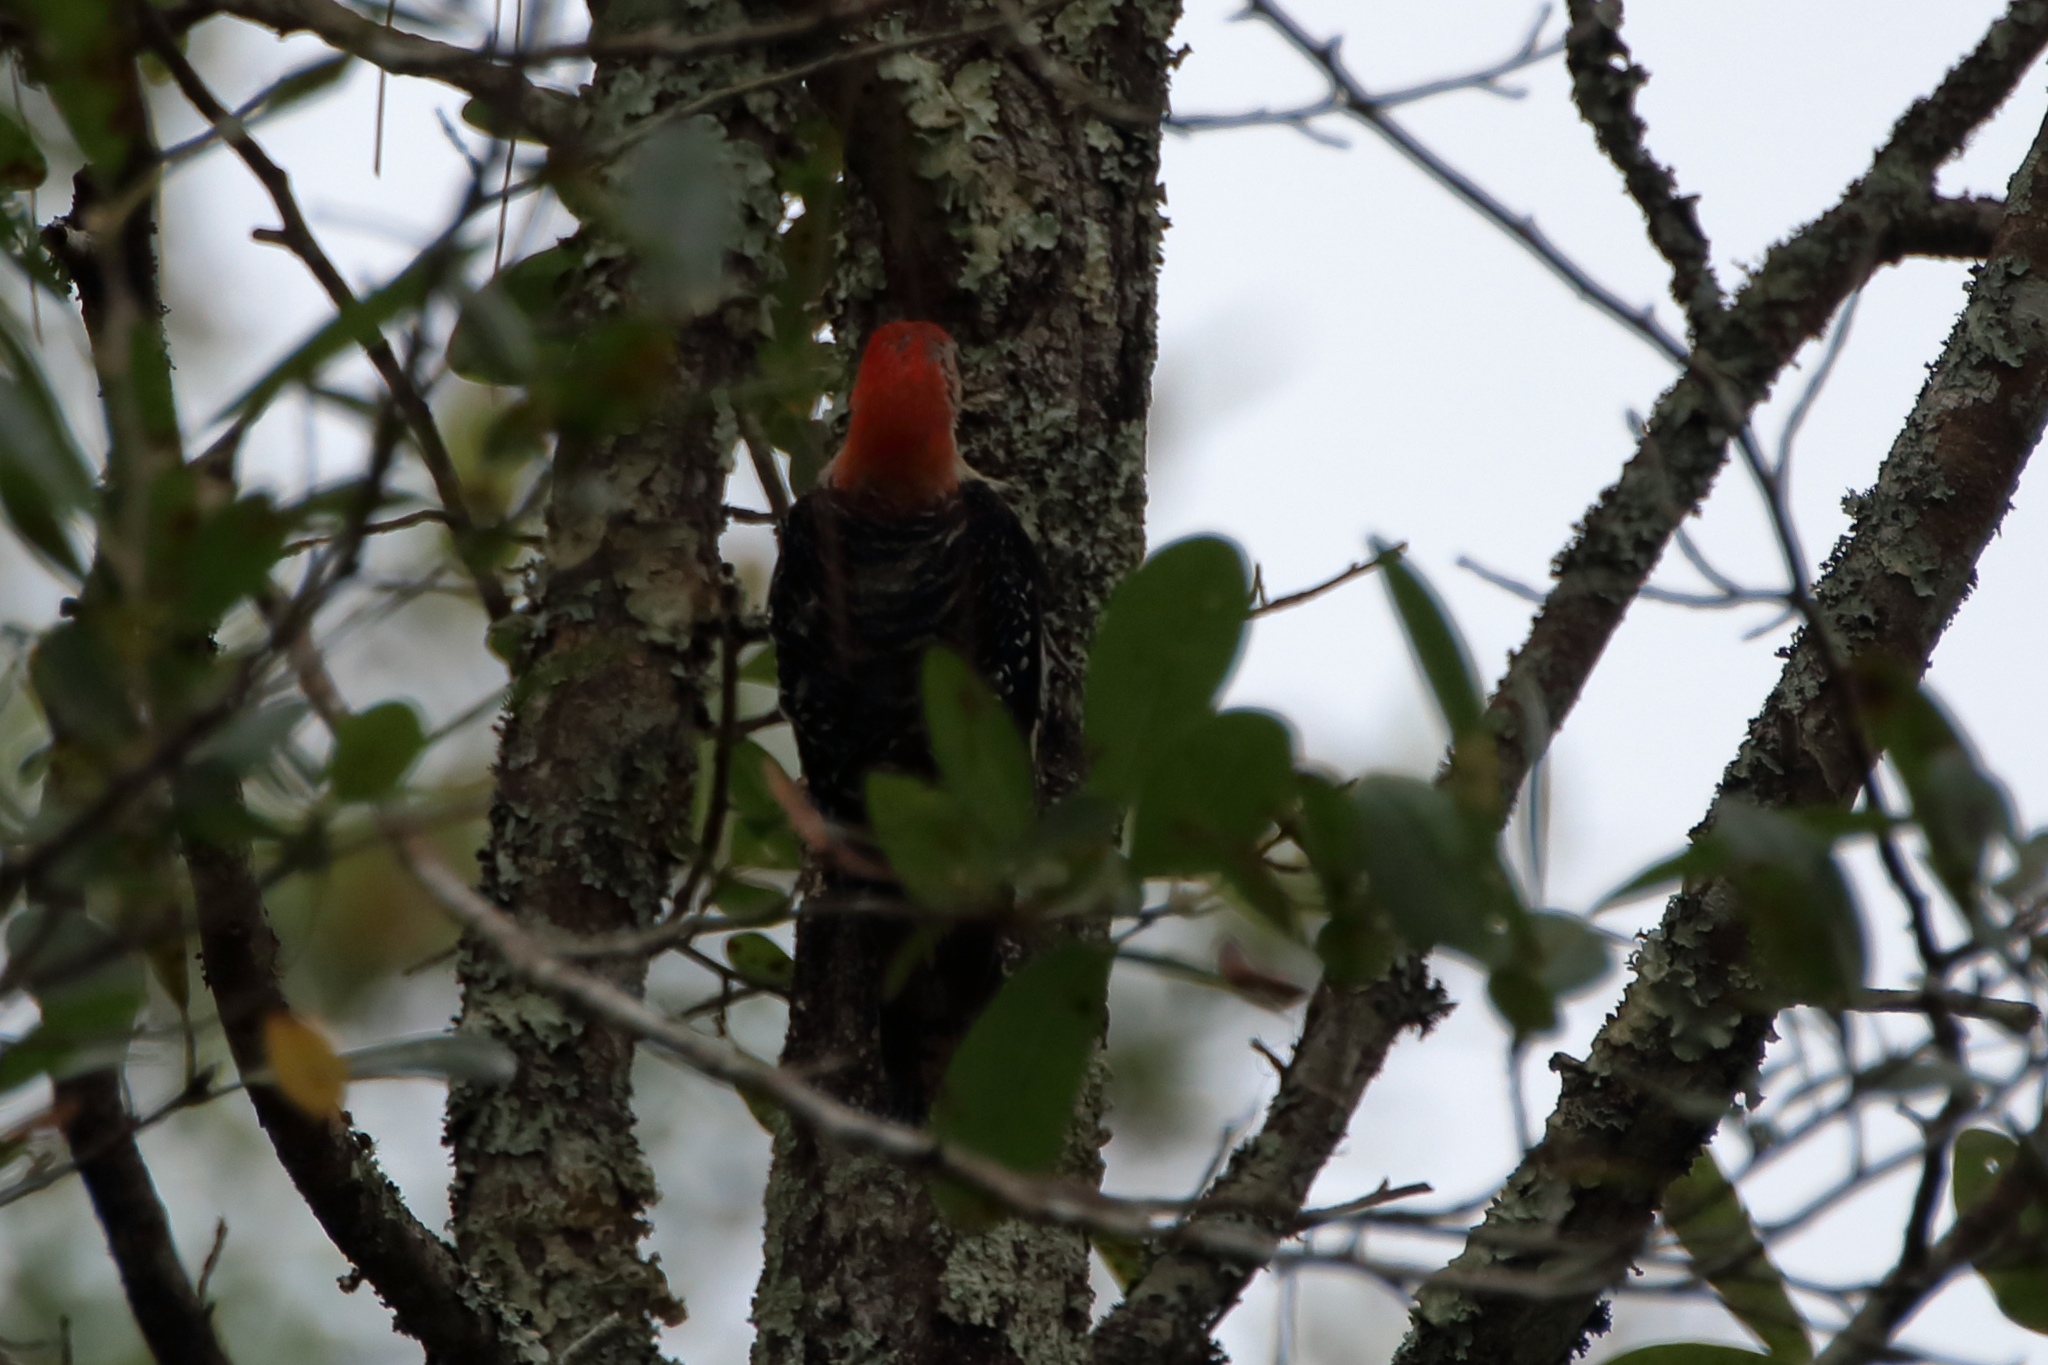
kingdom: Animalia
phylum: Chordata
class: Aves
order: Piciformes
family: Picidae
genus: Melanerpes
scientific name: Melanerpes carolinus
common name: Red-bellied woodpecker
